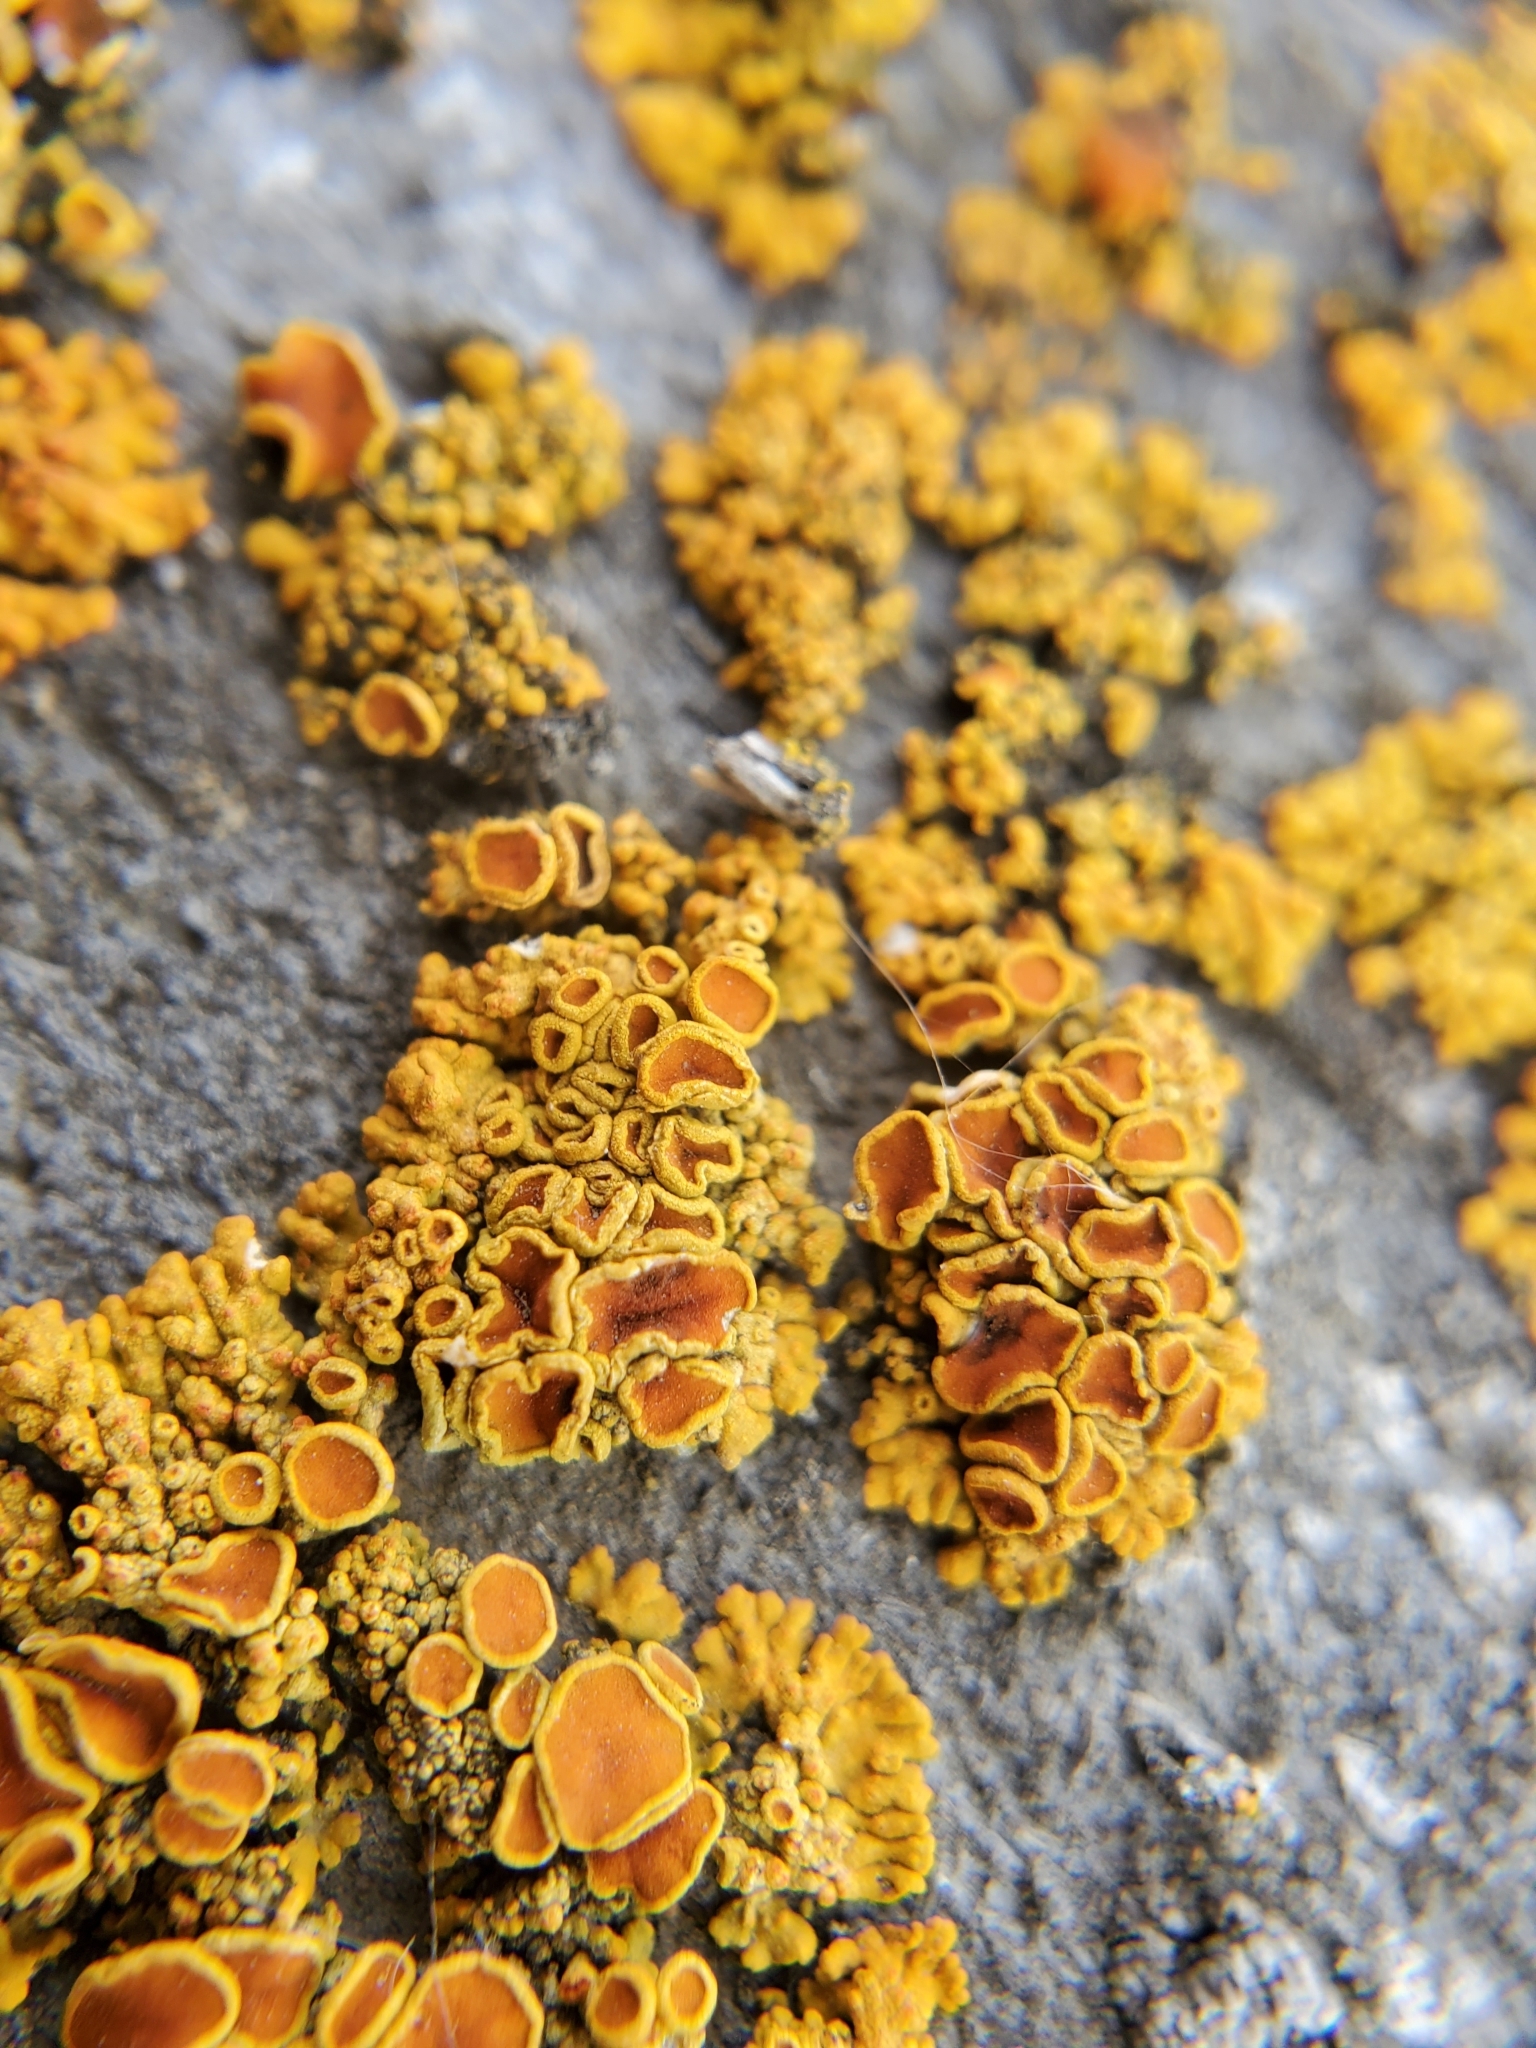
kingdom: Fungi
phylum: Ascomycota
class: Lecanoromycetes
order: Teloschistales
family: Teloschistaceae
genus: Polycauliona
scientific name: Polycauliona polycarpa
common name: Pin-cushion sunburst lichen
